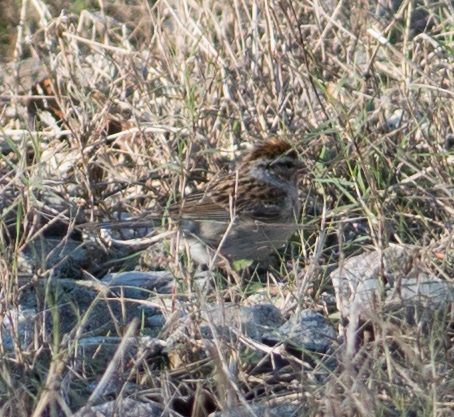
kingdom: Animalia
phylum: Chordata
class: Aves
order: Passeriformes
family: Passerellidae
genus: Spizella
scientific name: Spizella passerina
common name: Chipping sparrow
